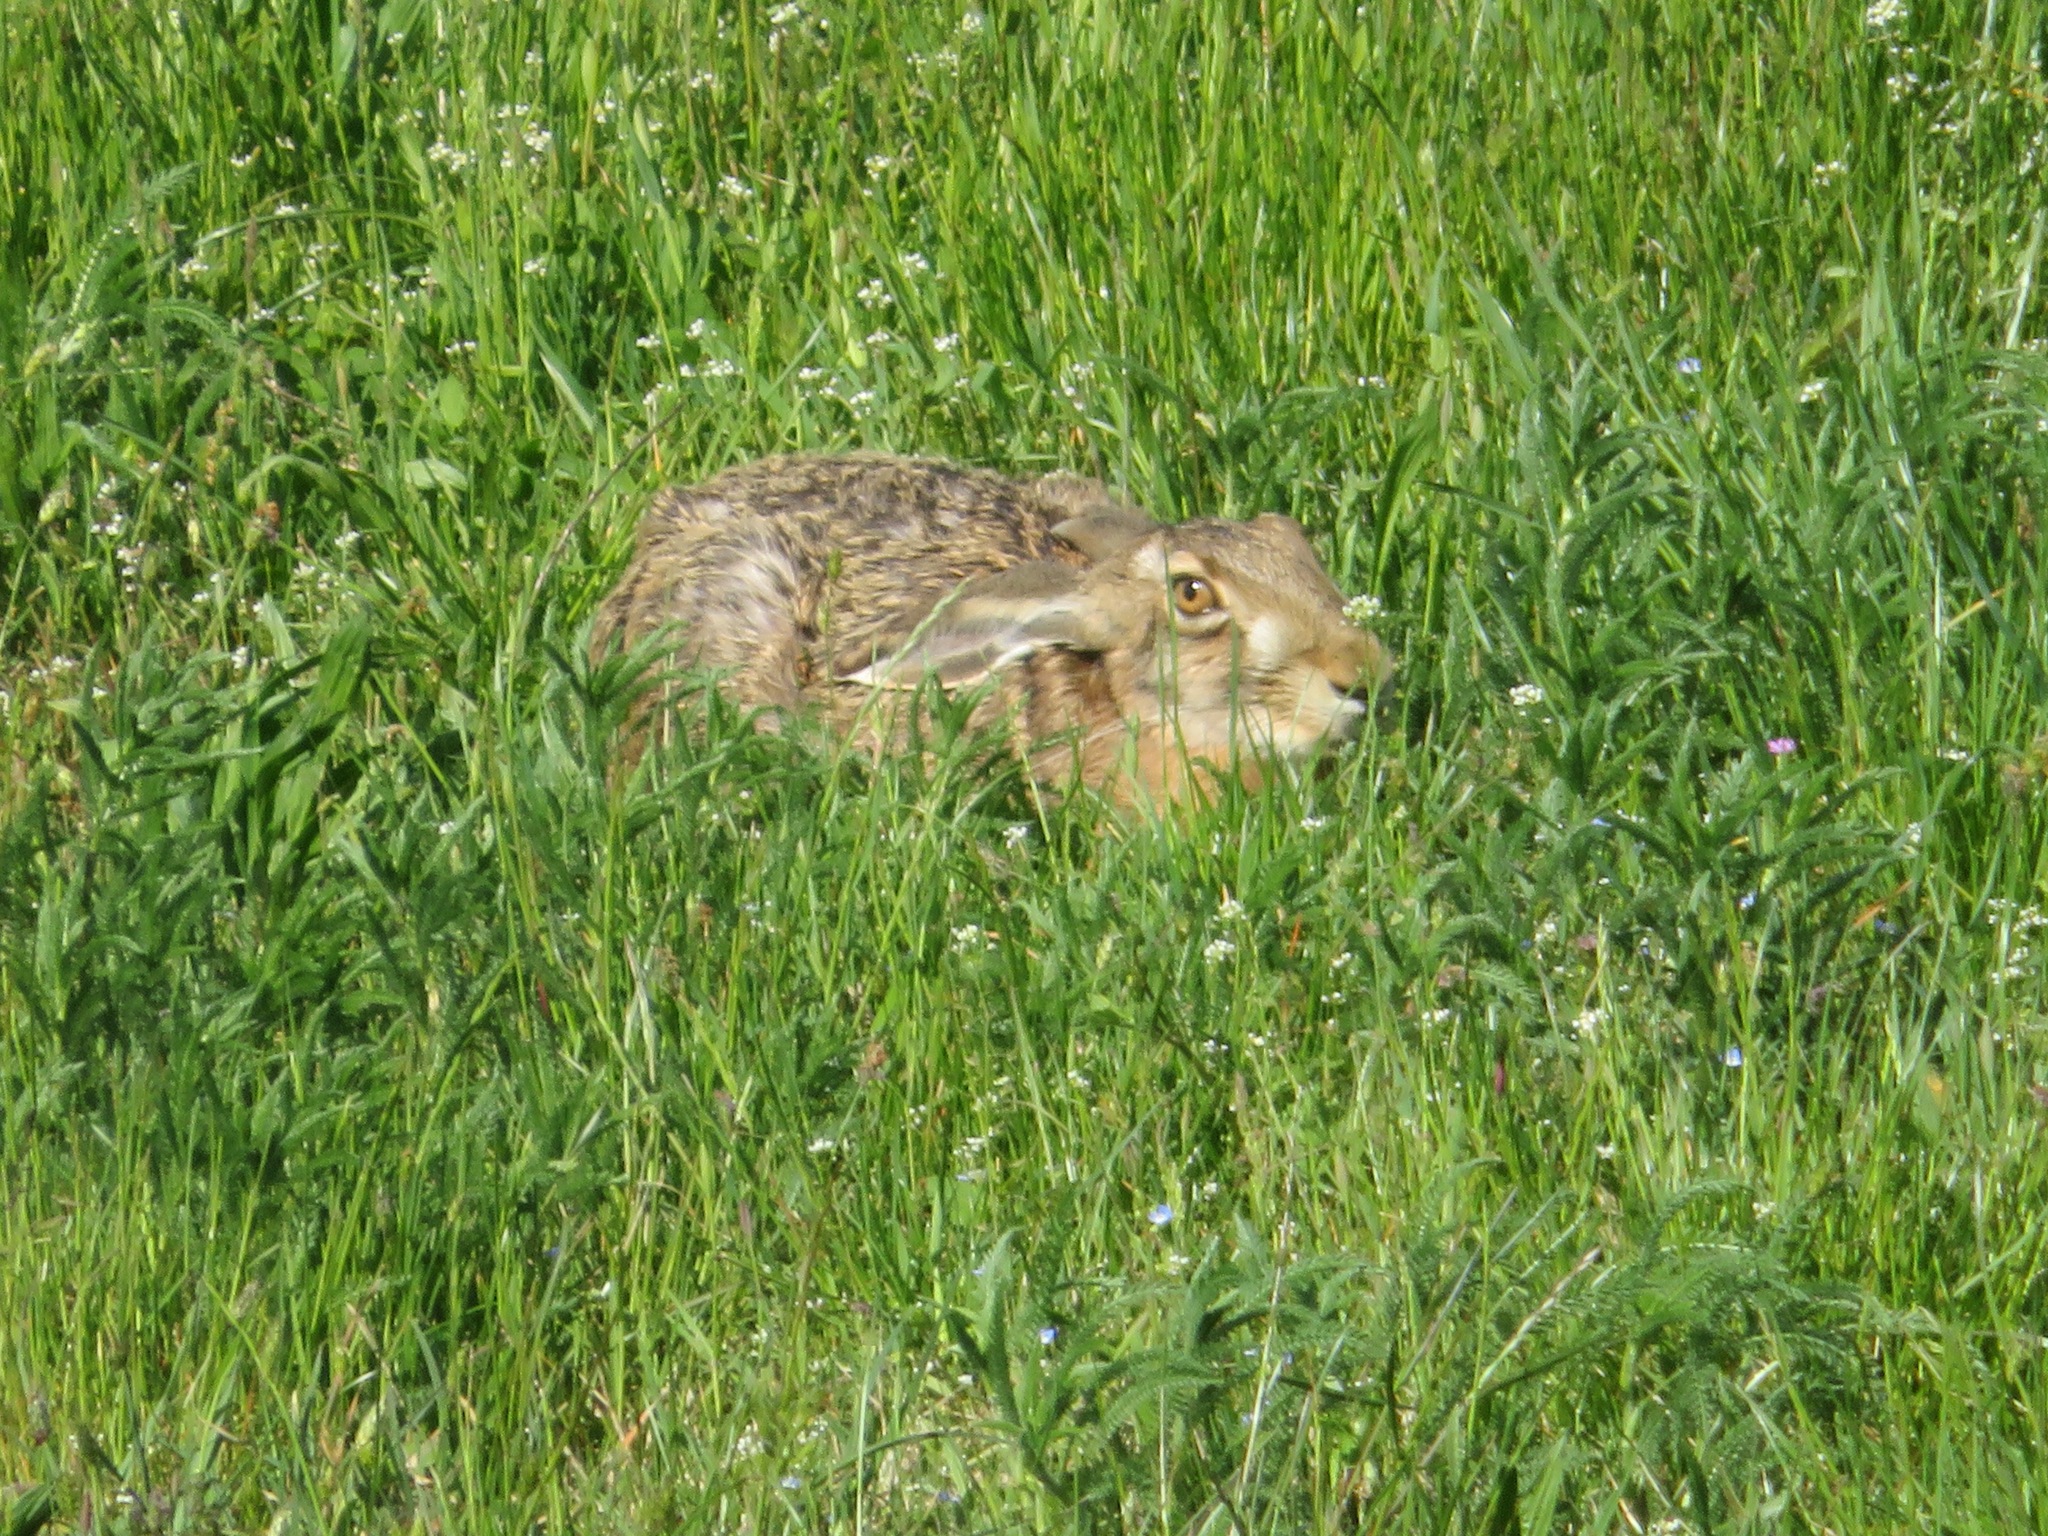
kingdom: Animalia
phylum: Chordata
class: Mammalia
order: Lagomorpha
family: Leporidae
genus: Lepus
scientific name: Lepus europaeus
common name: European hare
